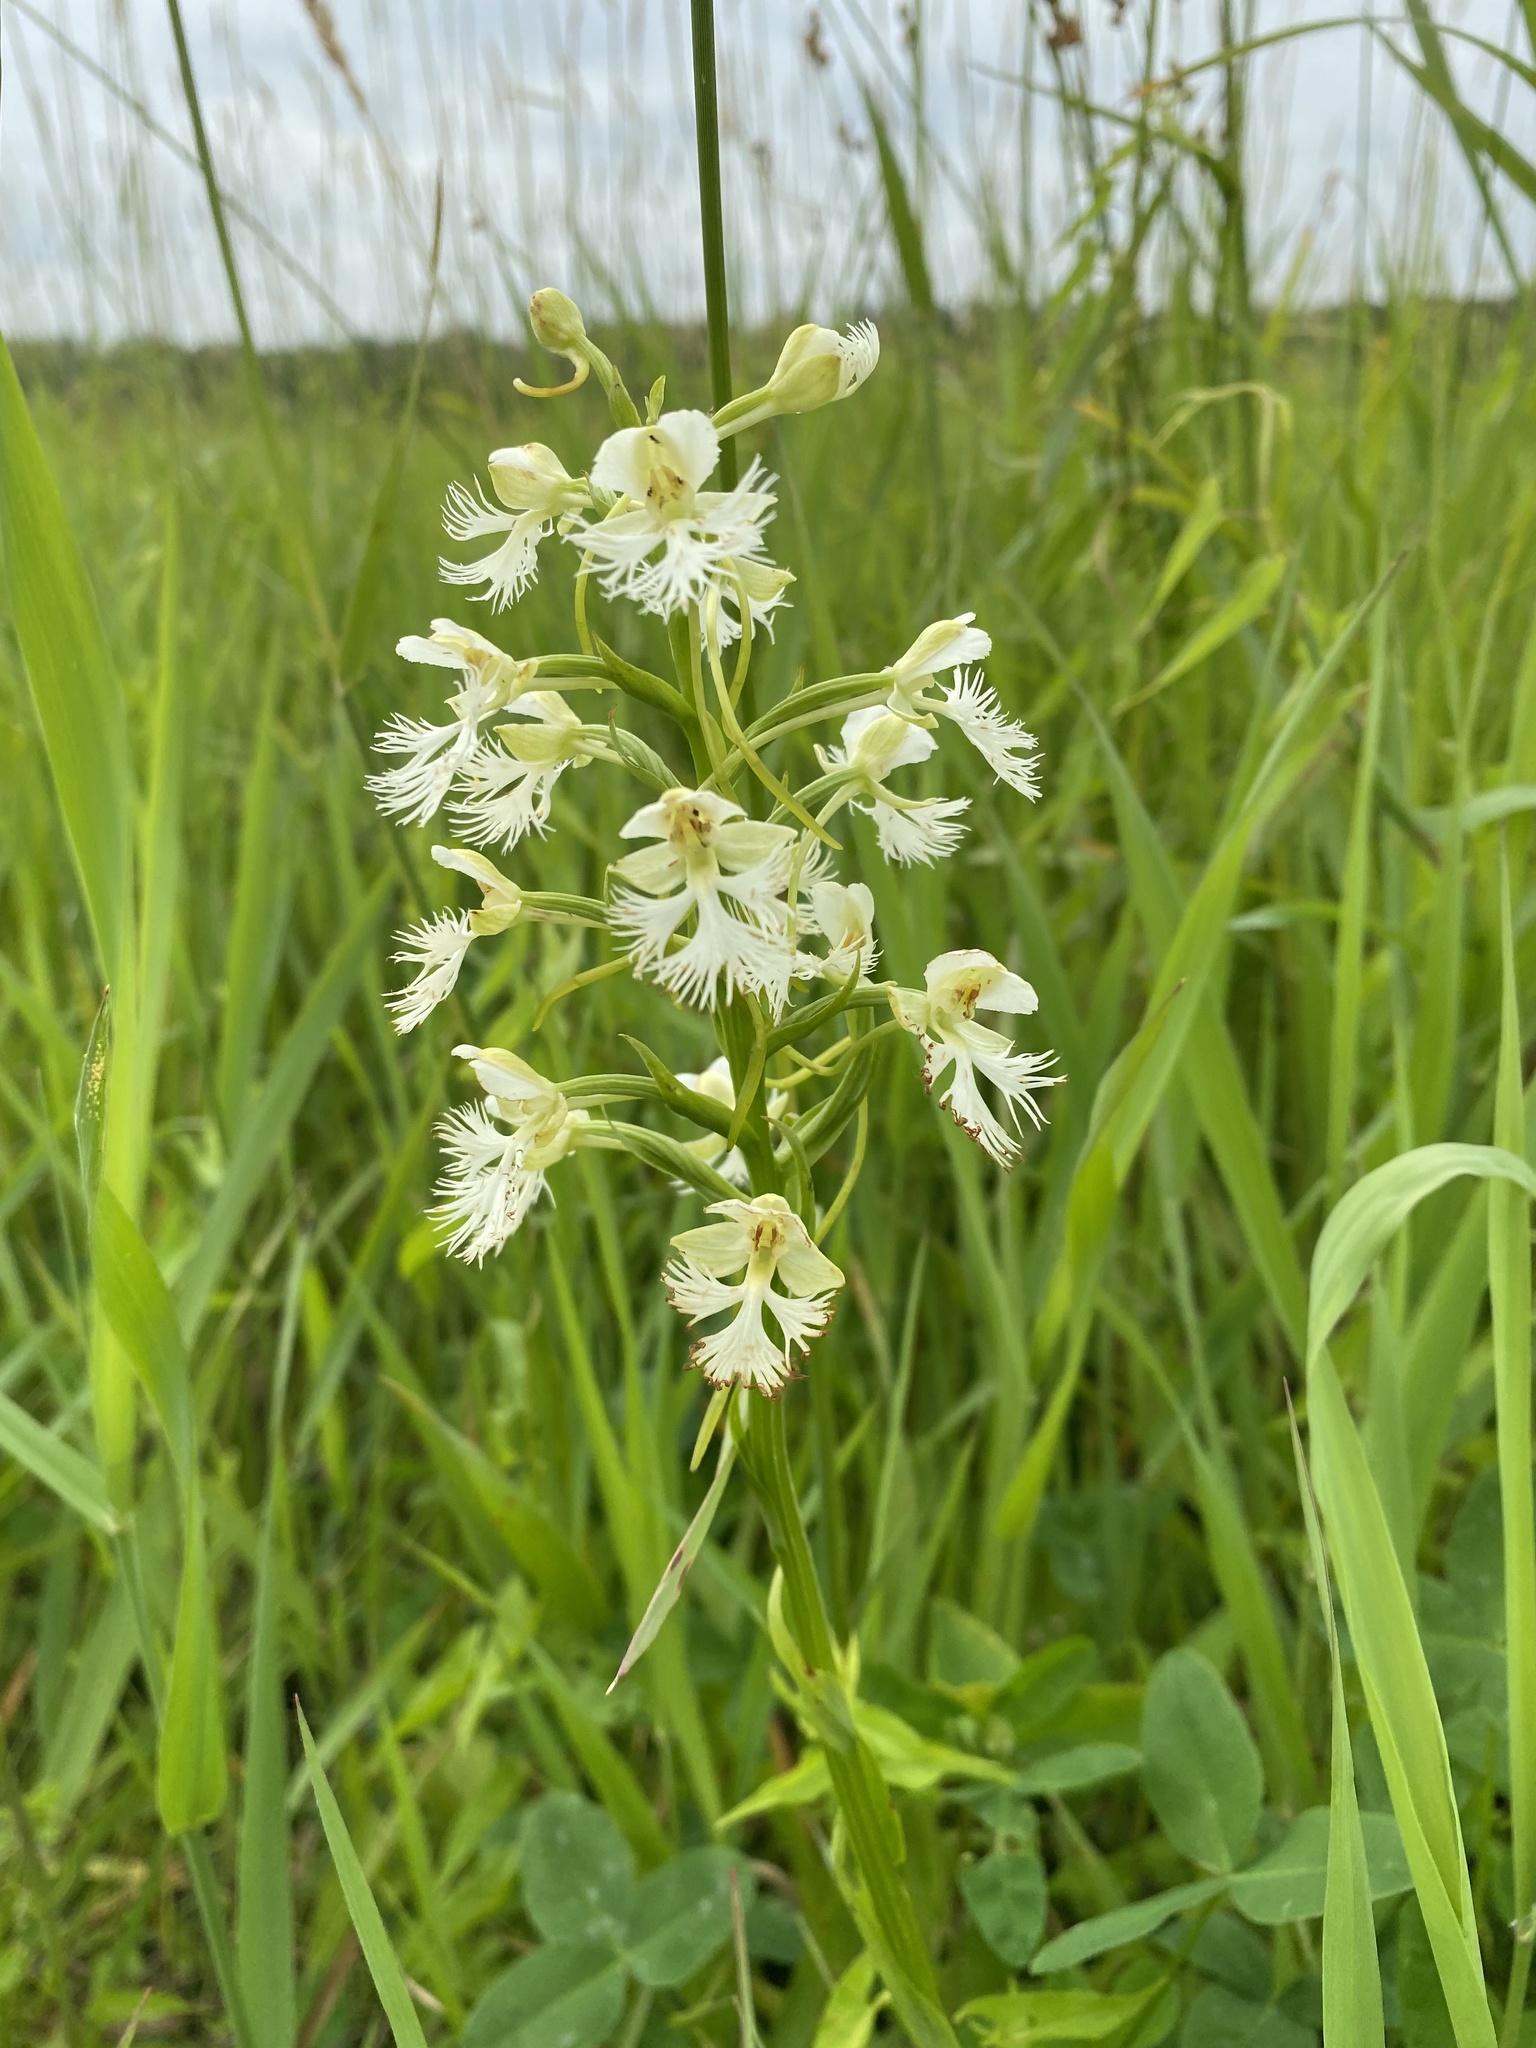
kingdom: Plantae
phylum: Tracheophyta
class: Liliopsida
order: Asparagales
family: Orchidaceae
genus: Platanthera
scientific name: Platanthera leucophaea
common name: Eastern prairie white-fringed orchid
